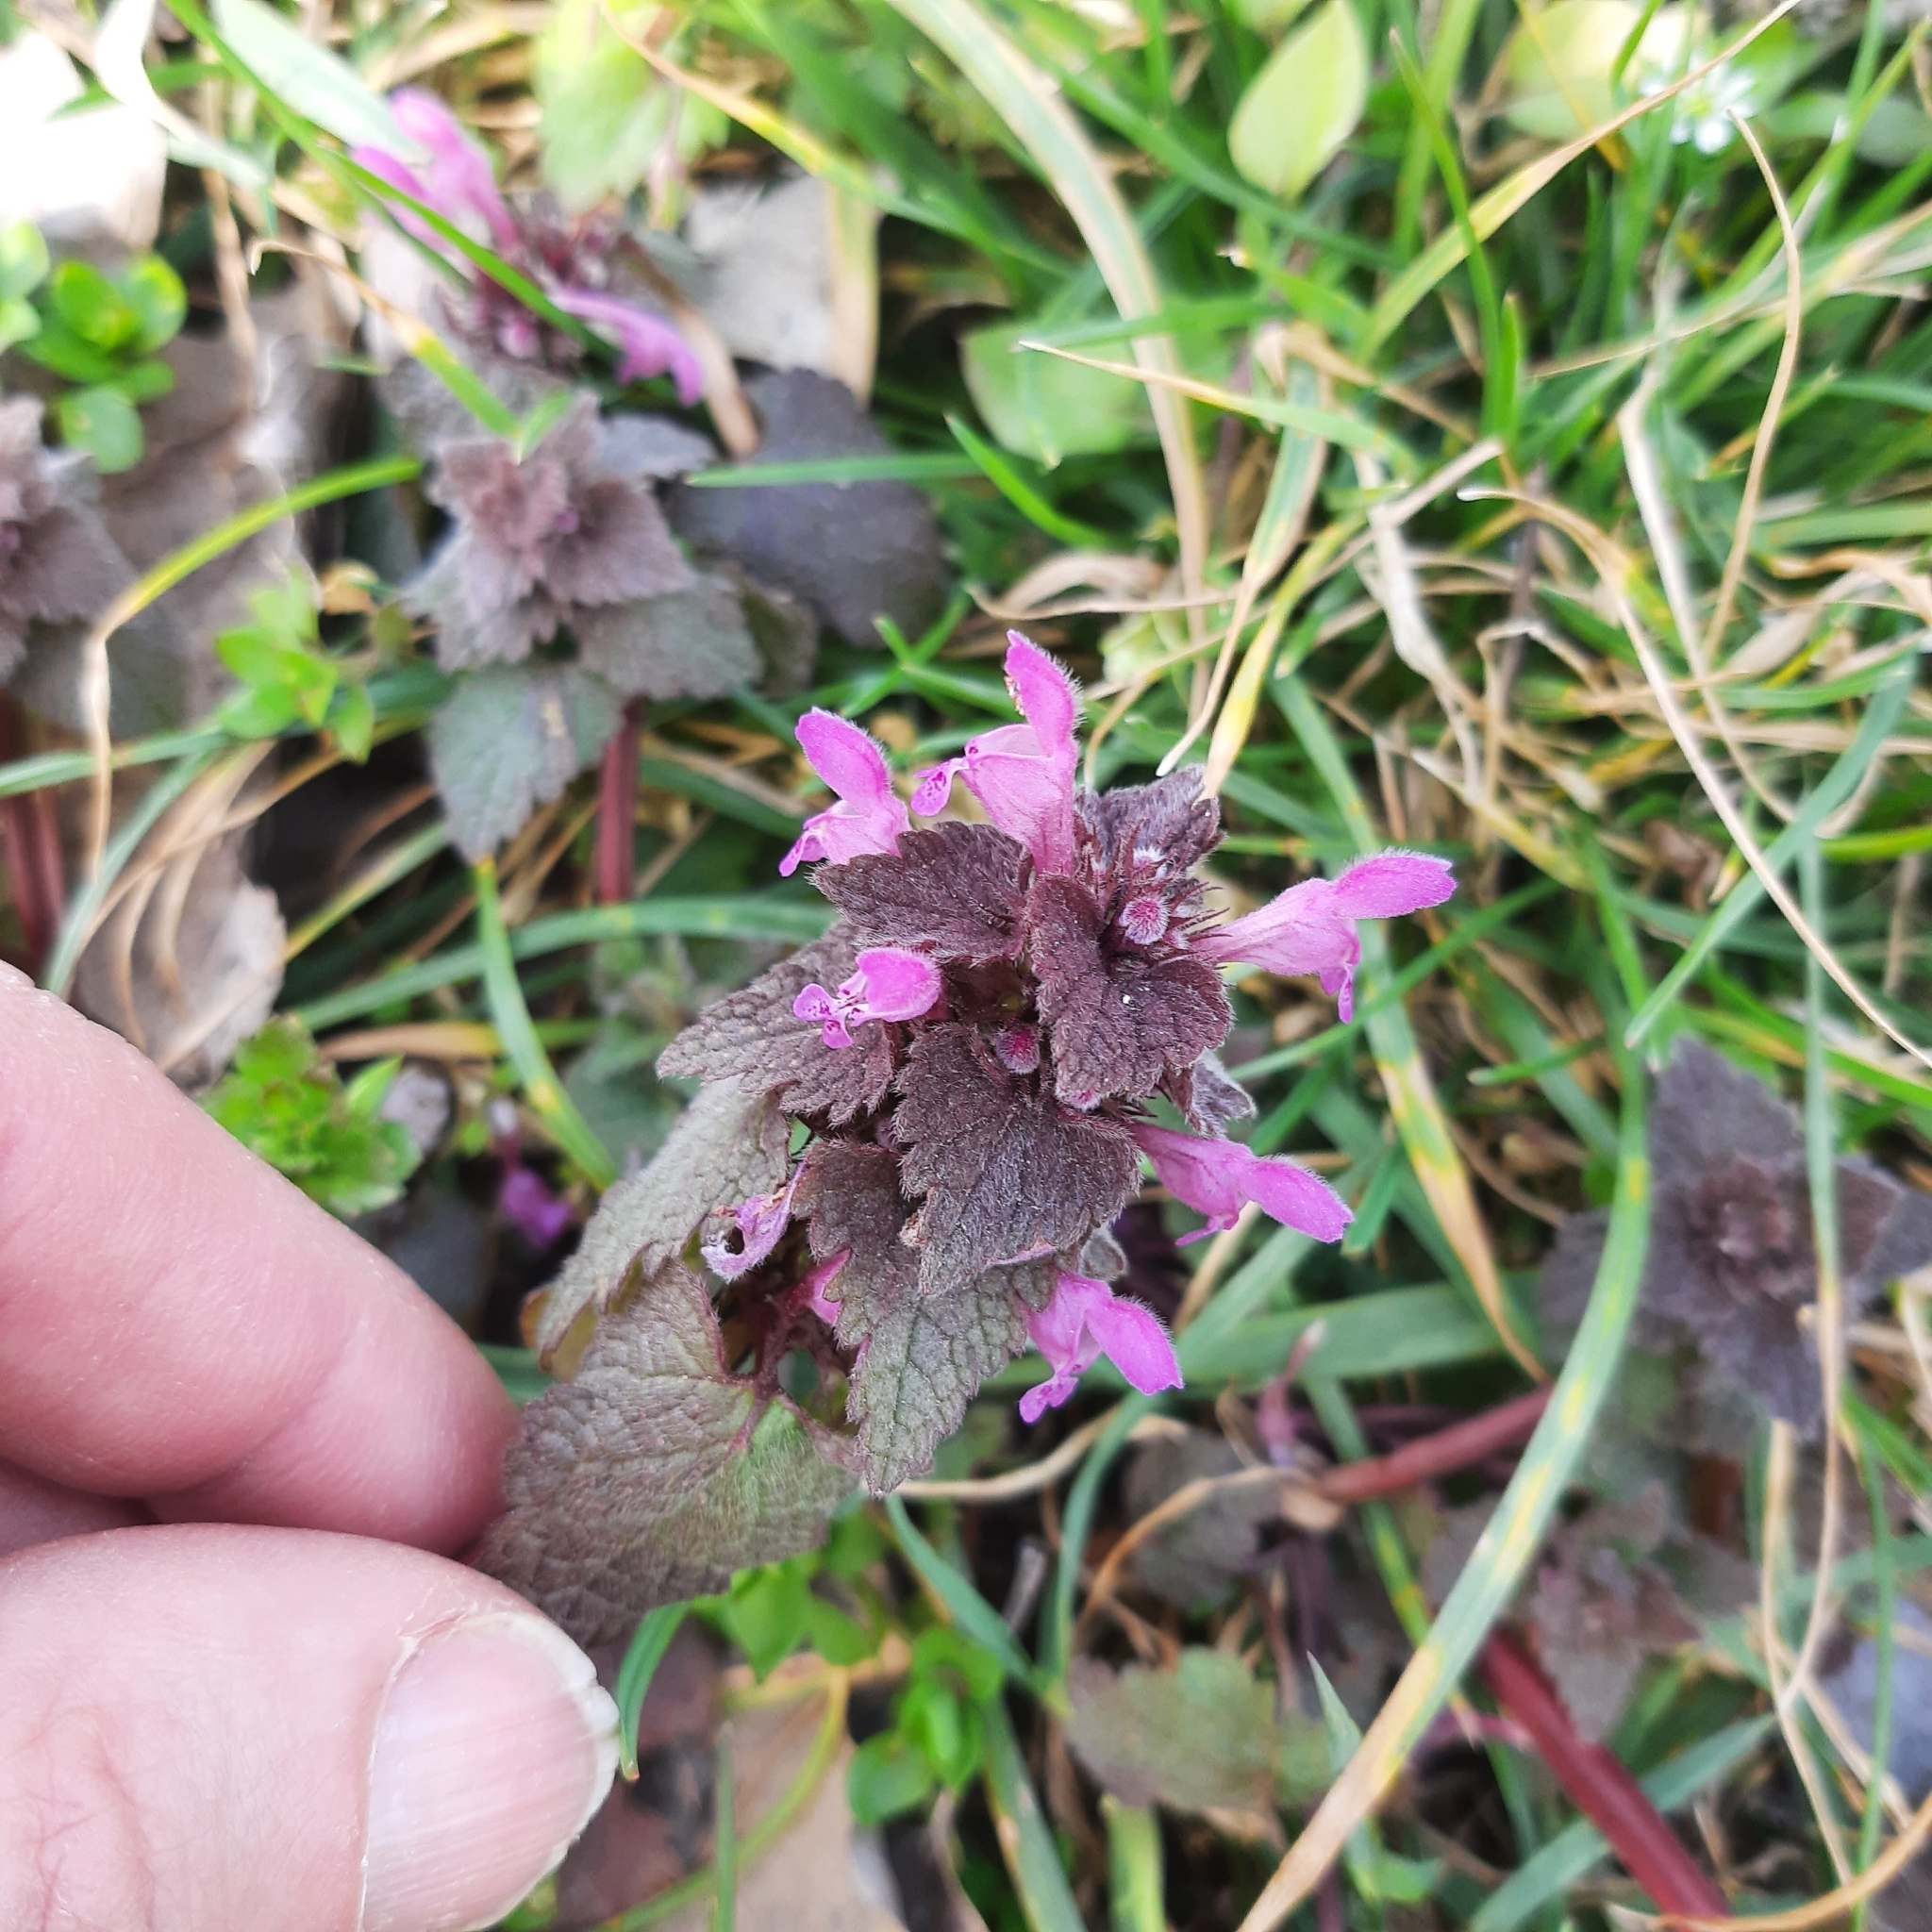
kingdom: Plantae
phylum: Tracheophyta
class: Magnoliopsida
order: Lamiales
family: Lamiaceae
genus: Lamium
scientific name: Lamium purpureum
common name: Red dead-nettle
